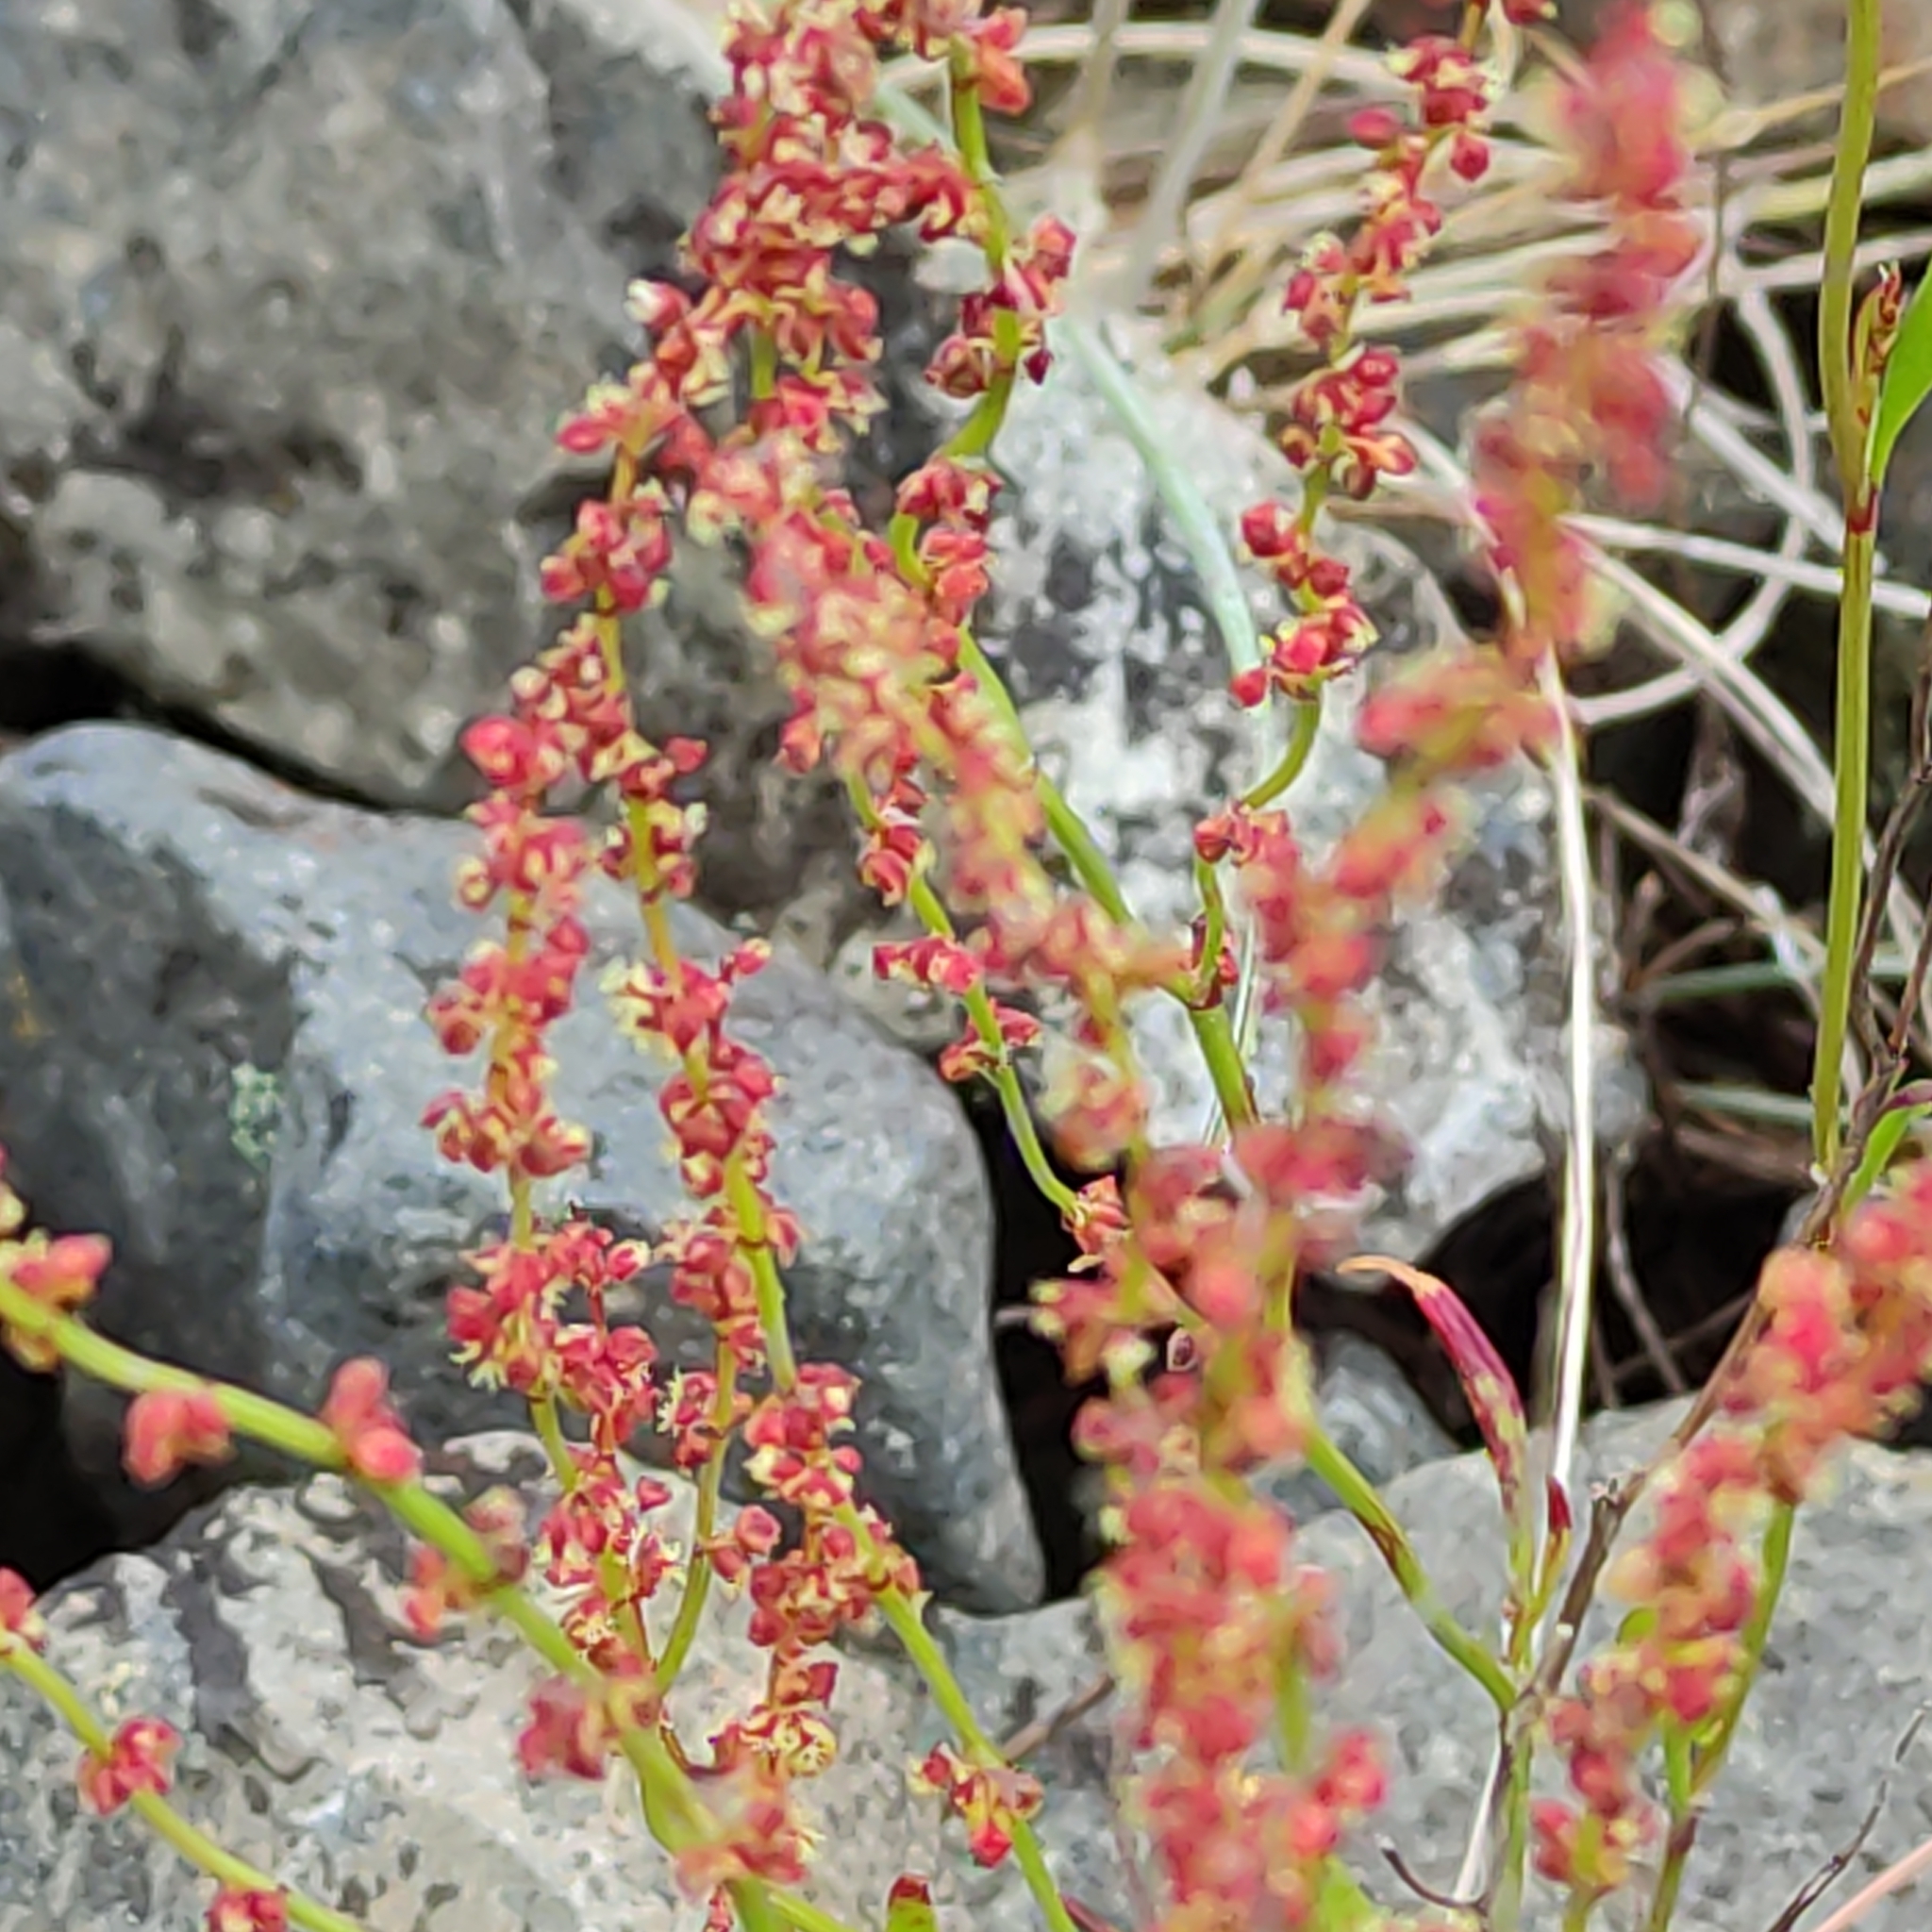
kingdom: Plantae
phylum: Tracheophyta
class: Magnoliopsida
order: Caryophyllales
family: Polygonaceae
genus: Rumex
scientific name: Rumex acetosella
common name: Common sheep sorrel
